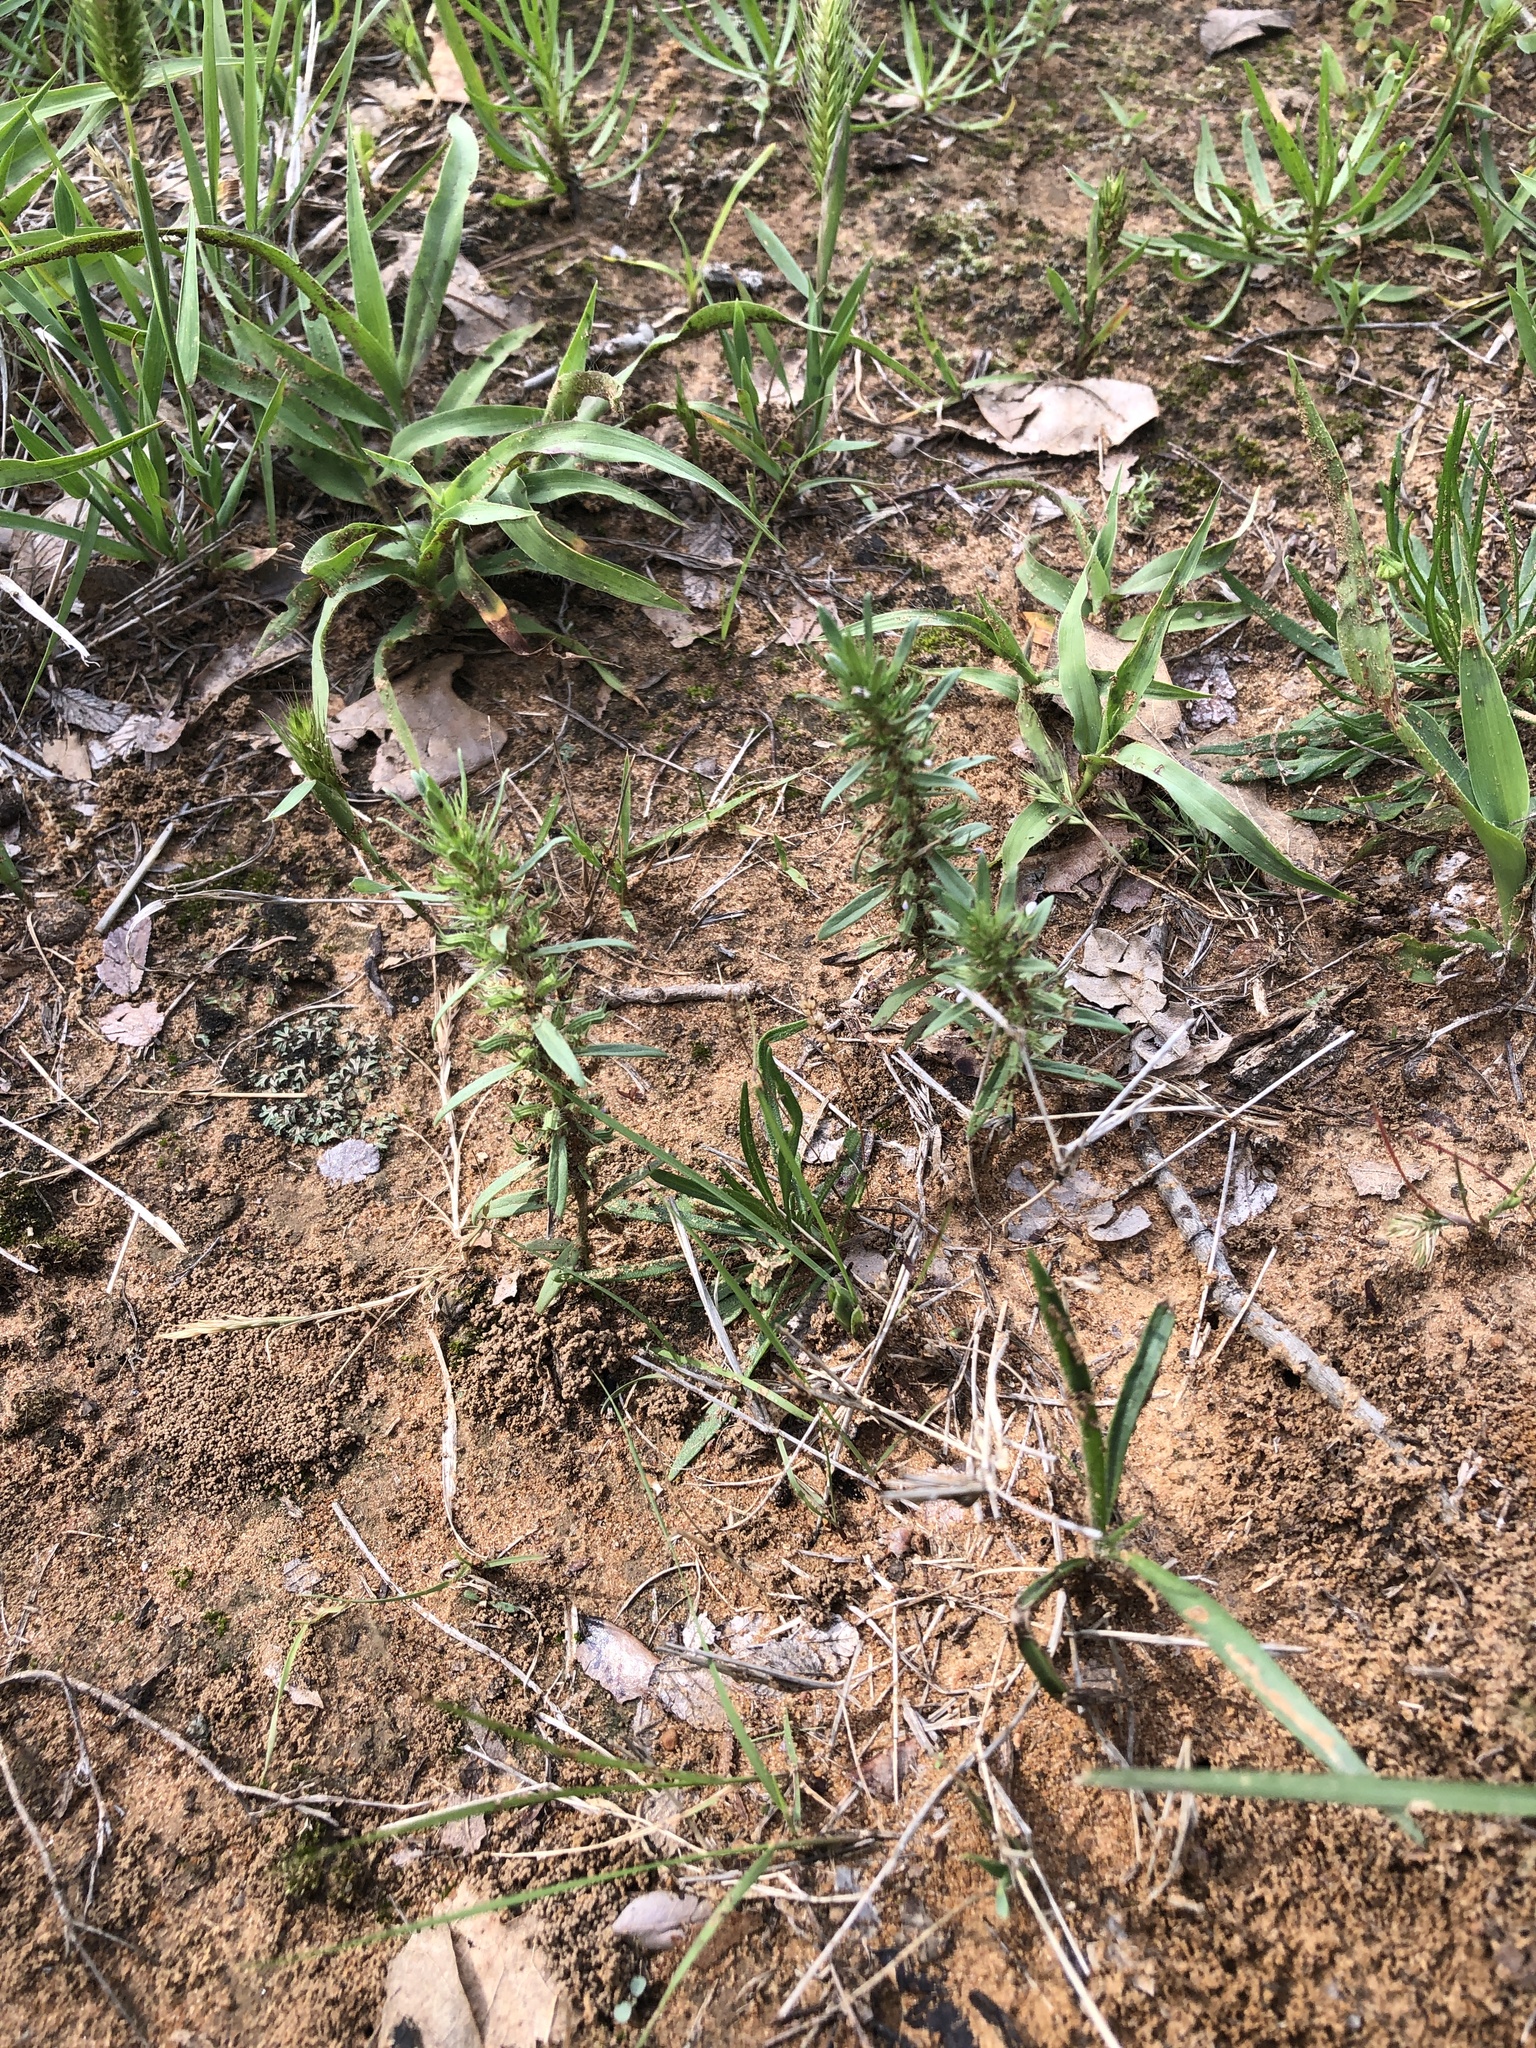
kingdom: Plantae
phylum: Tracheophyta
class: Magnoliopsida
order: Lamiales
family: Lamiaceae
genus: Hedeoma
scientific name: Hedeoma hispida
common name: Mock pennyroyal
